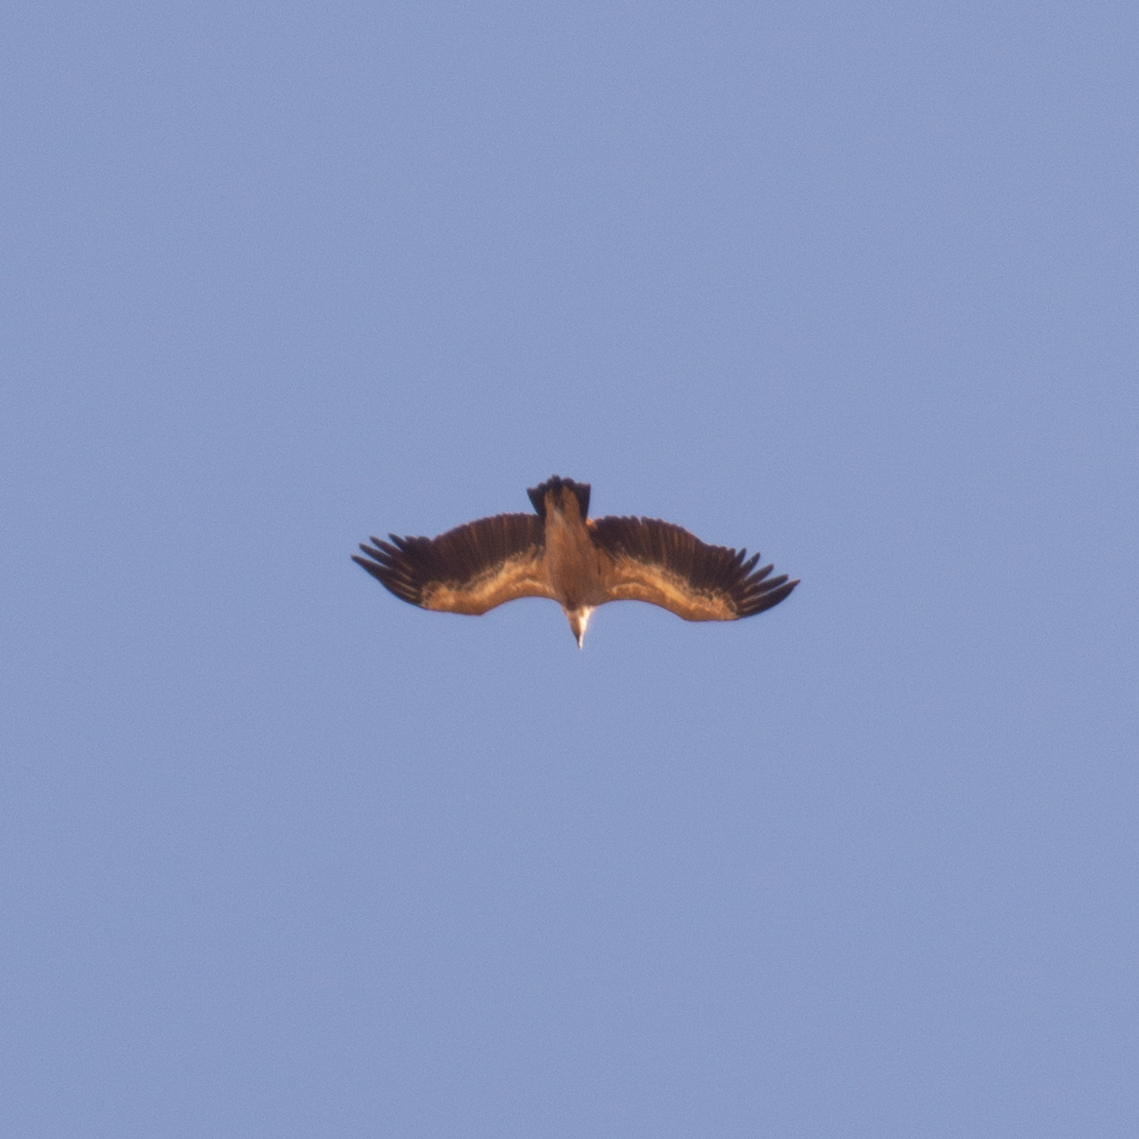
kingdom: Animalia
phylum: Chordata
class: Aves
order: Accipitriformes
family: Accipitridae
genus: Gyps
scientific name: Gyps fulvus
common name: Griffon vulture
